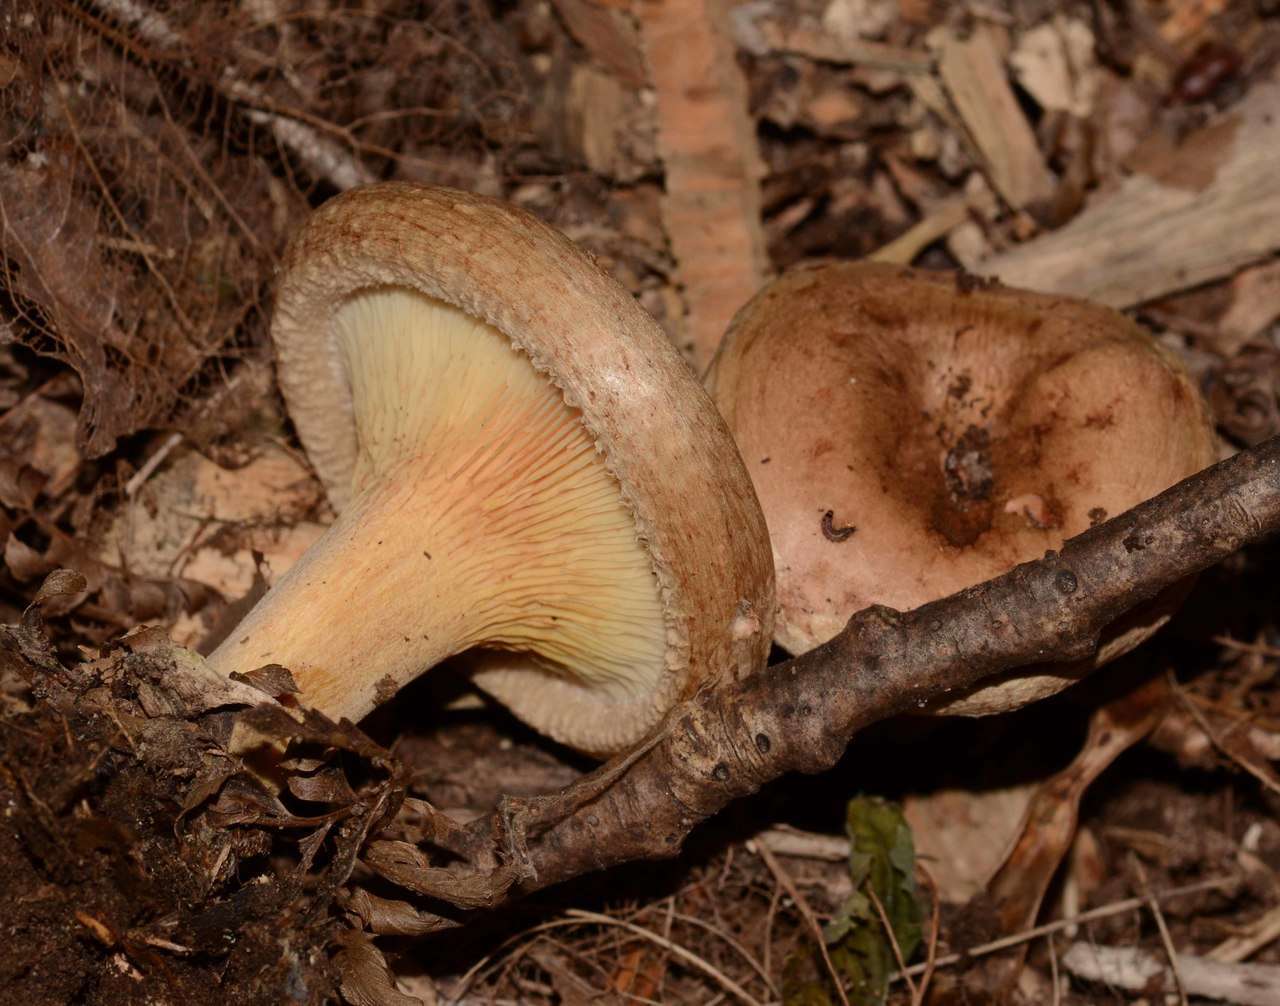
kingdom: Fungi
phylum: Basidiomycota
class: Agaricomycetes
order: Boletales
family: Paxillaceae
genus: Paxillus
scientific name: Paxillus involutus
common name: Brown roll rim
